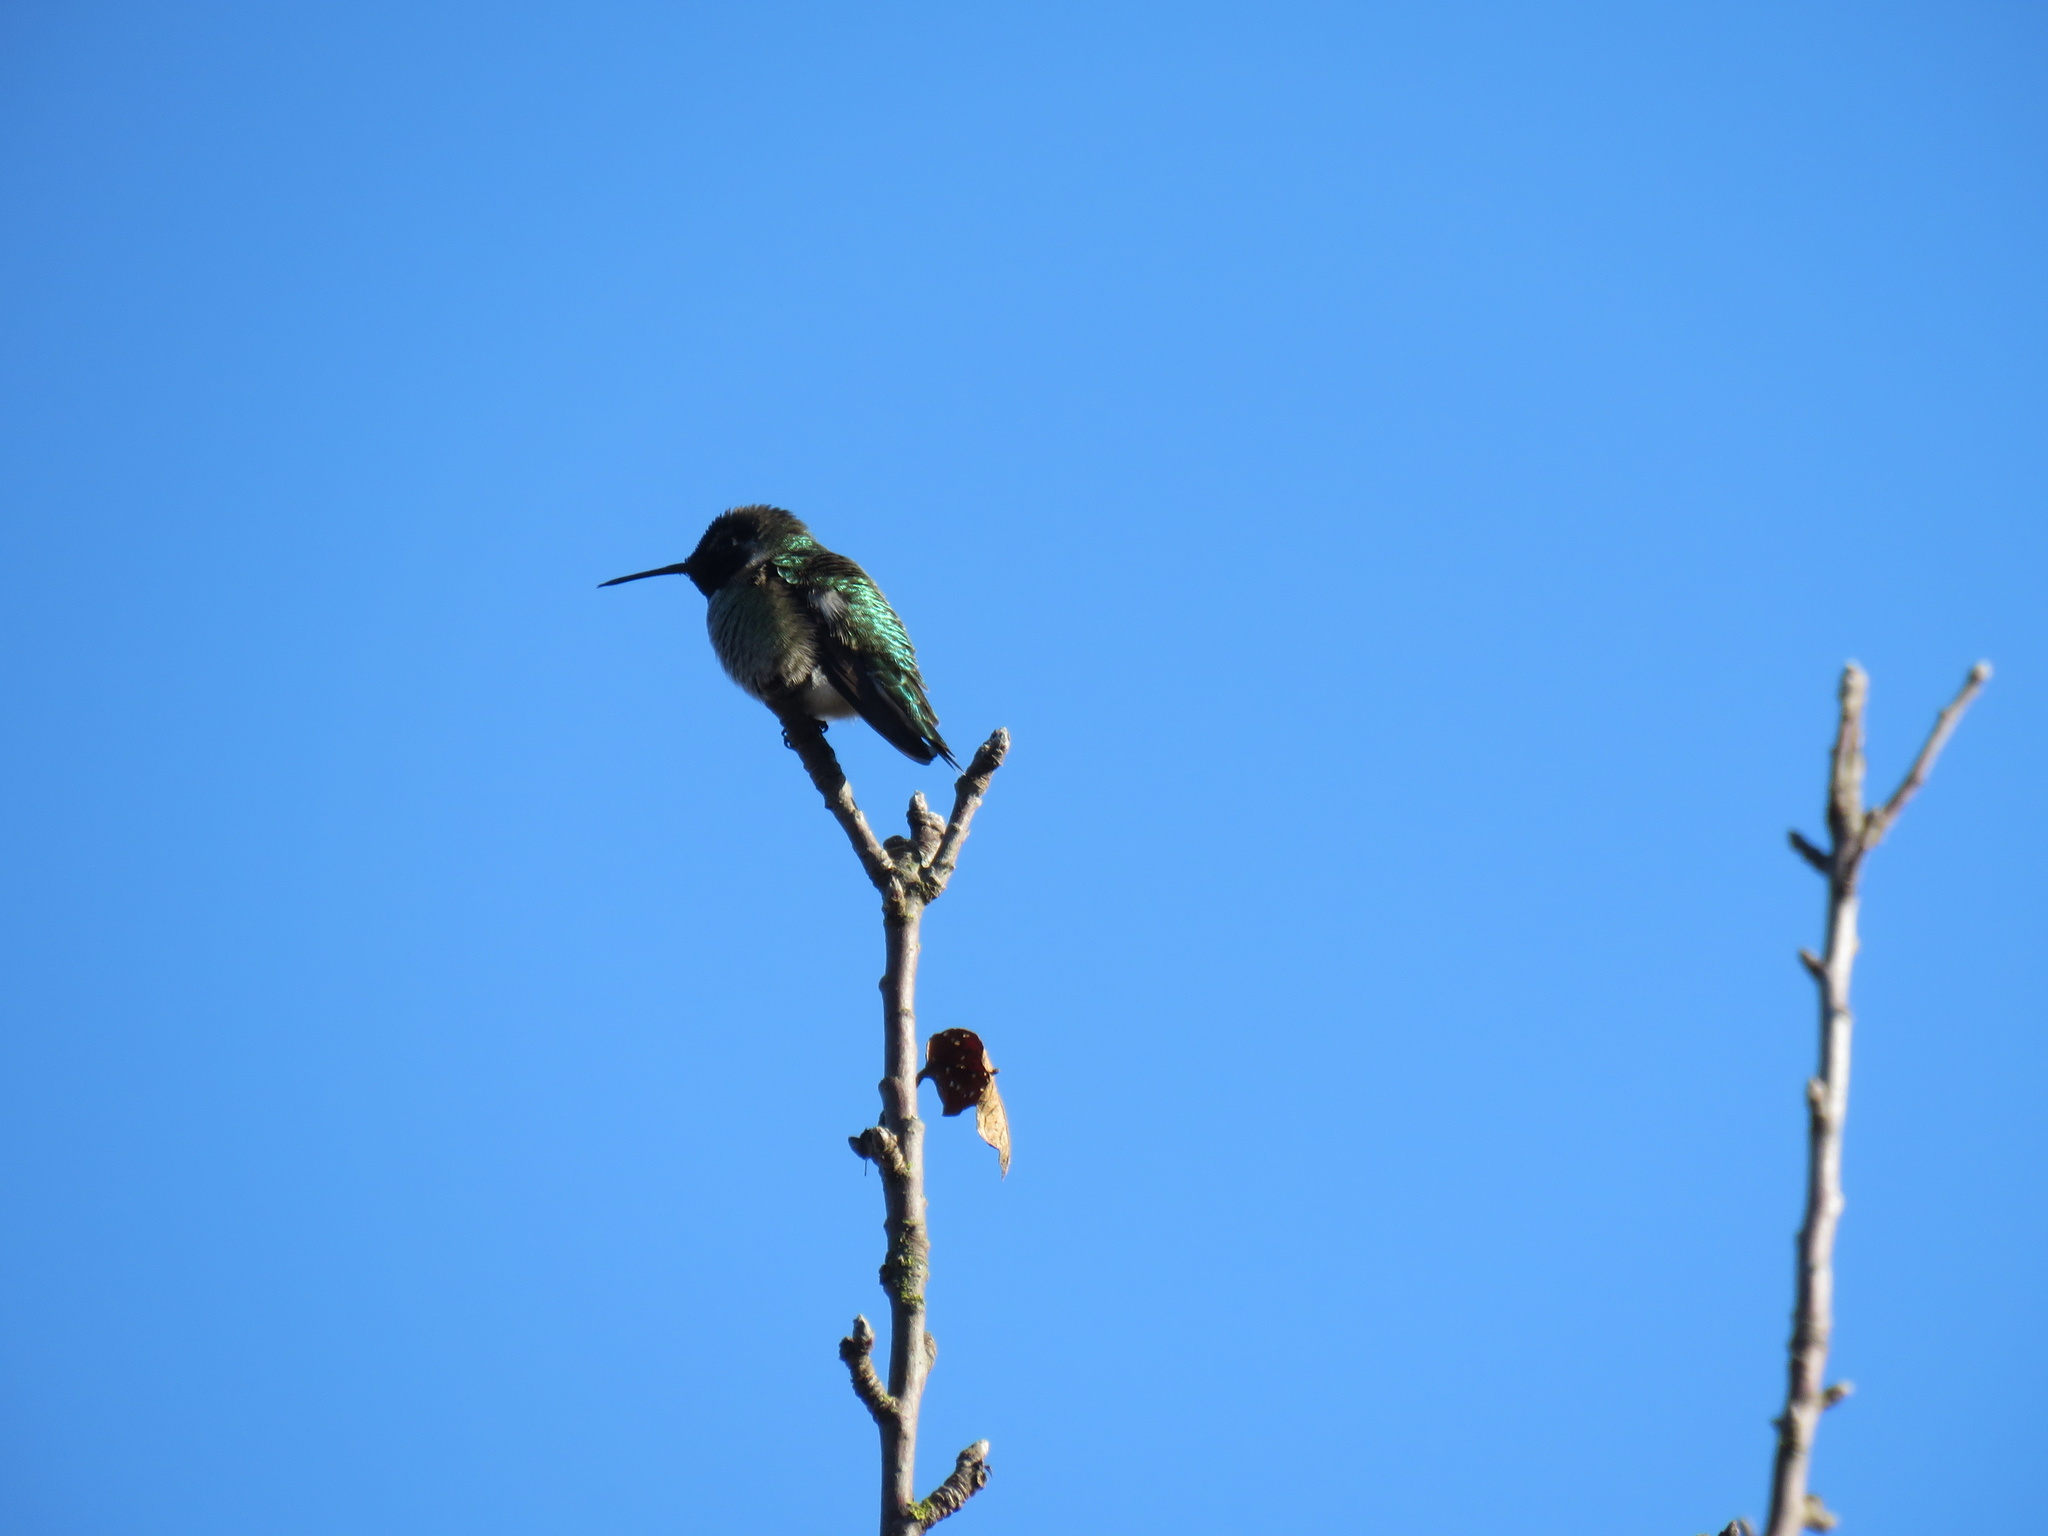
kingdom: Animalia
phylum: Chordata
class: Aves
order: Apodiformes
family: Trochilidae
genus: Calypte
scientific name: Calypte anna
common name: Anna's hummingbird
